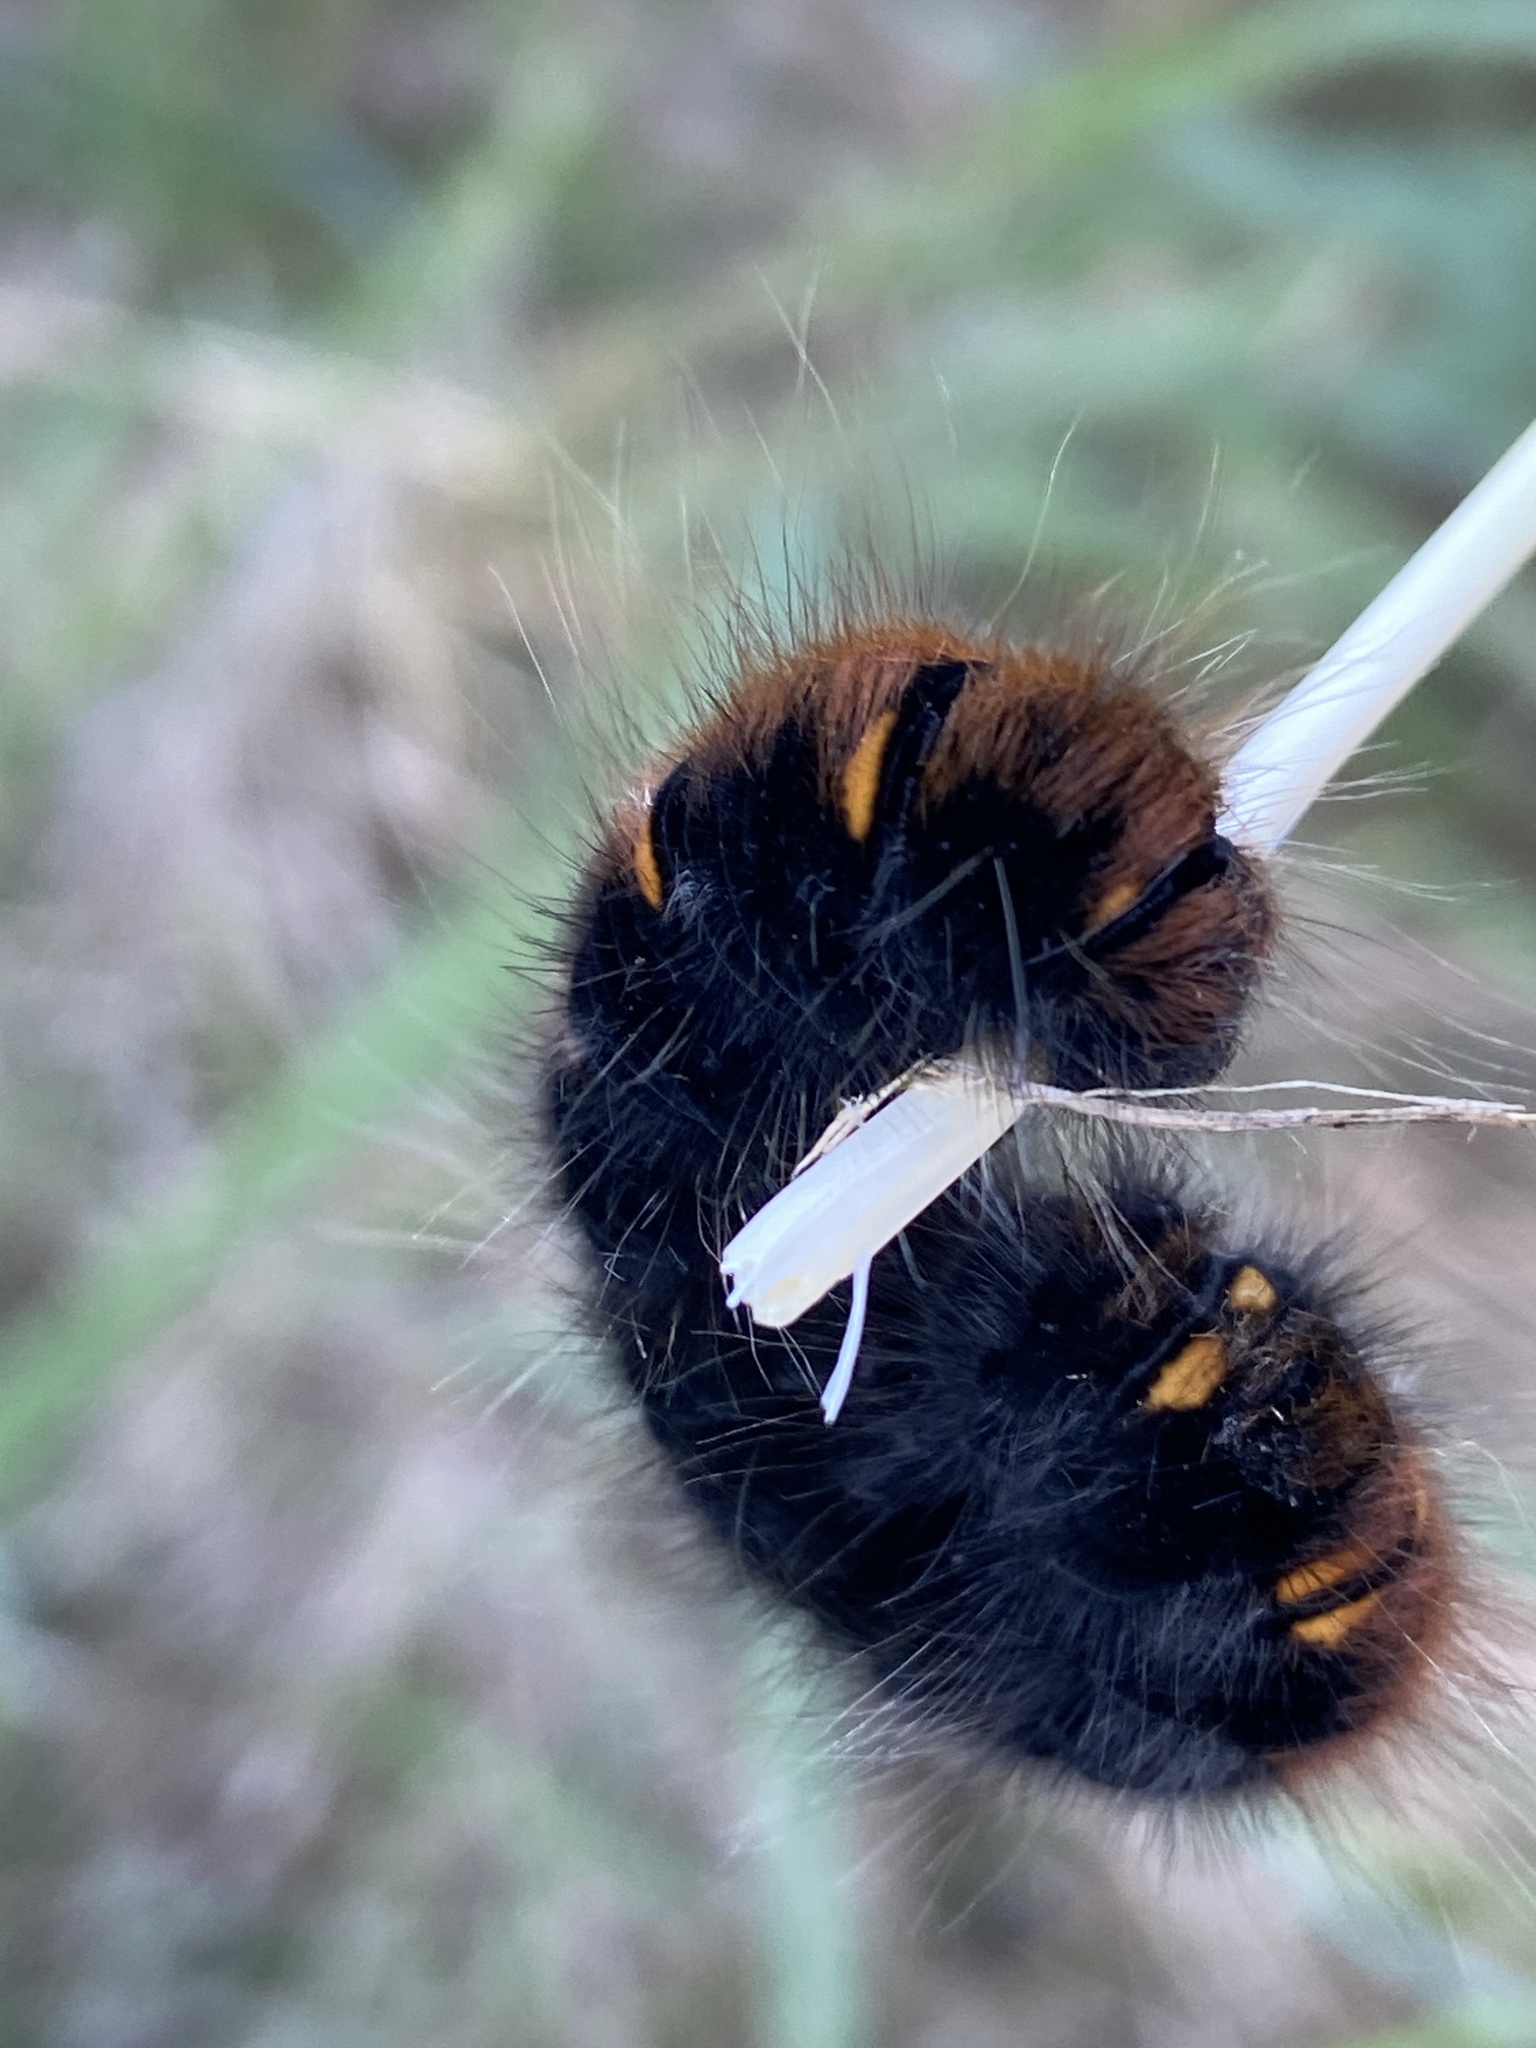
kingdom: Animalia
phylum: Arthropoda
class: Insecta
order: Lepidoptera
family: Lasiocampidae
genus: Macrothylacia
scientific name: Macrothylacia rubi
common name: Fox moth
